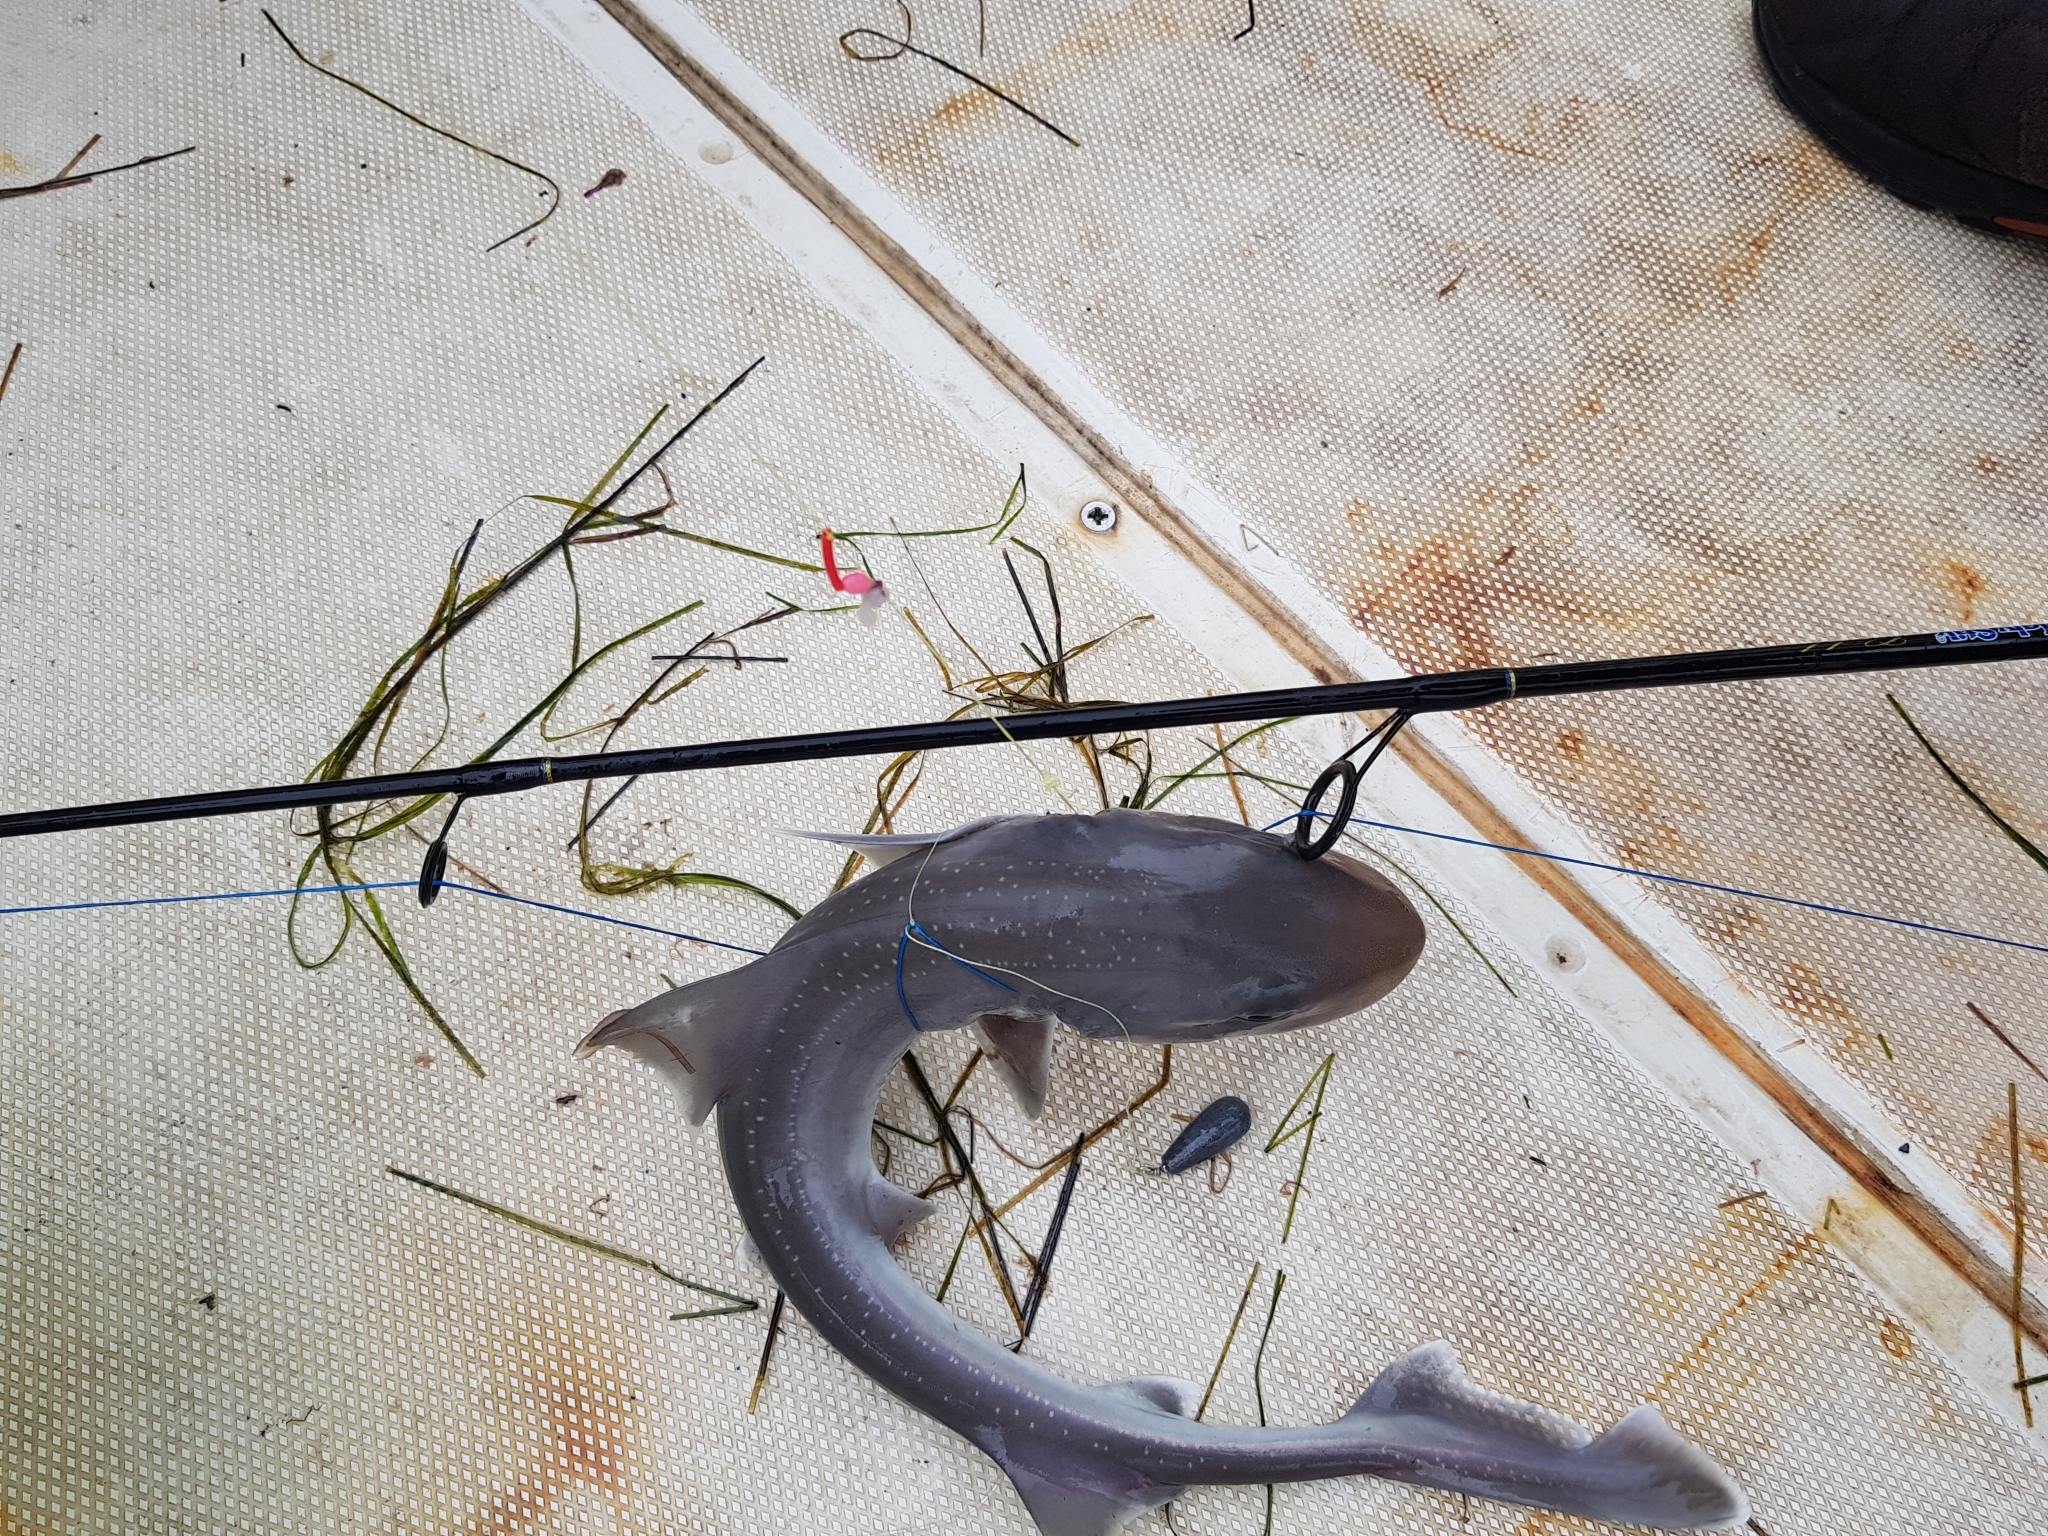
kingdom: Animalia
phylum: Chordata
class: Elasmobranchii
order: Carcharhiniformes
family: Triakidae
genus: Mustelus
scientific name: Mustelus antarcticus
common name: Gummy shark
